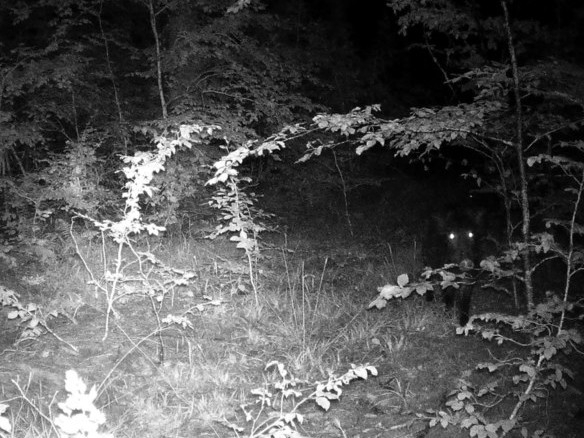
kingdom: Animalia
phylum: Chordata
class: Mammalia
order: Artiodactyla
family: Suidae
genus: Sus
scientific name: Sus scrofa
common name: Wild boar
